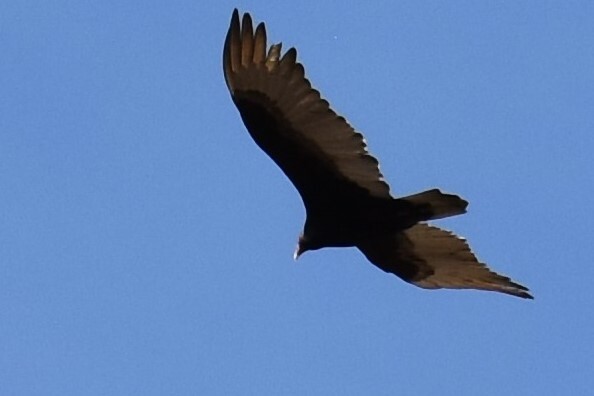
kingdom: Animalia
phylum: Chordata
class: Aves
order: Accipitriformes
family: Cathartidae
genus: Cathartes
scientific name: Cathartes aura
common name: Turkey vulture
